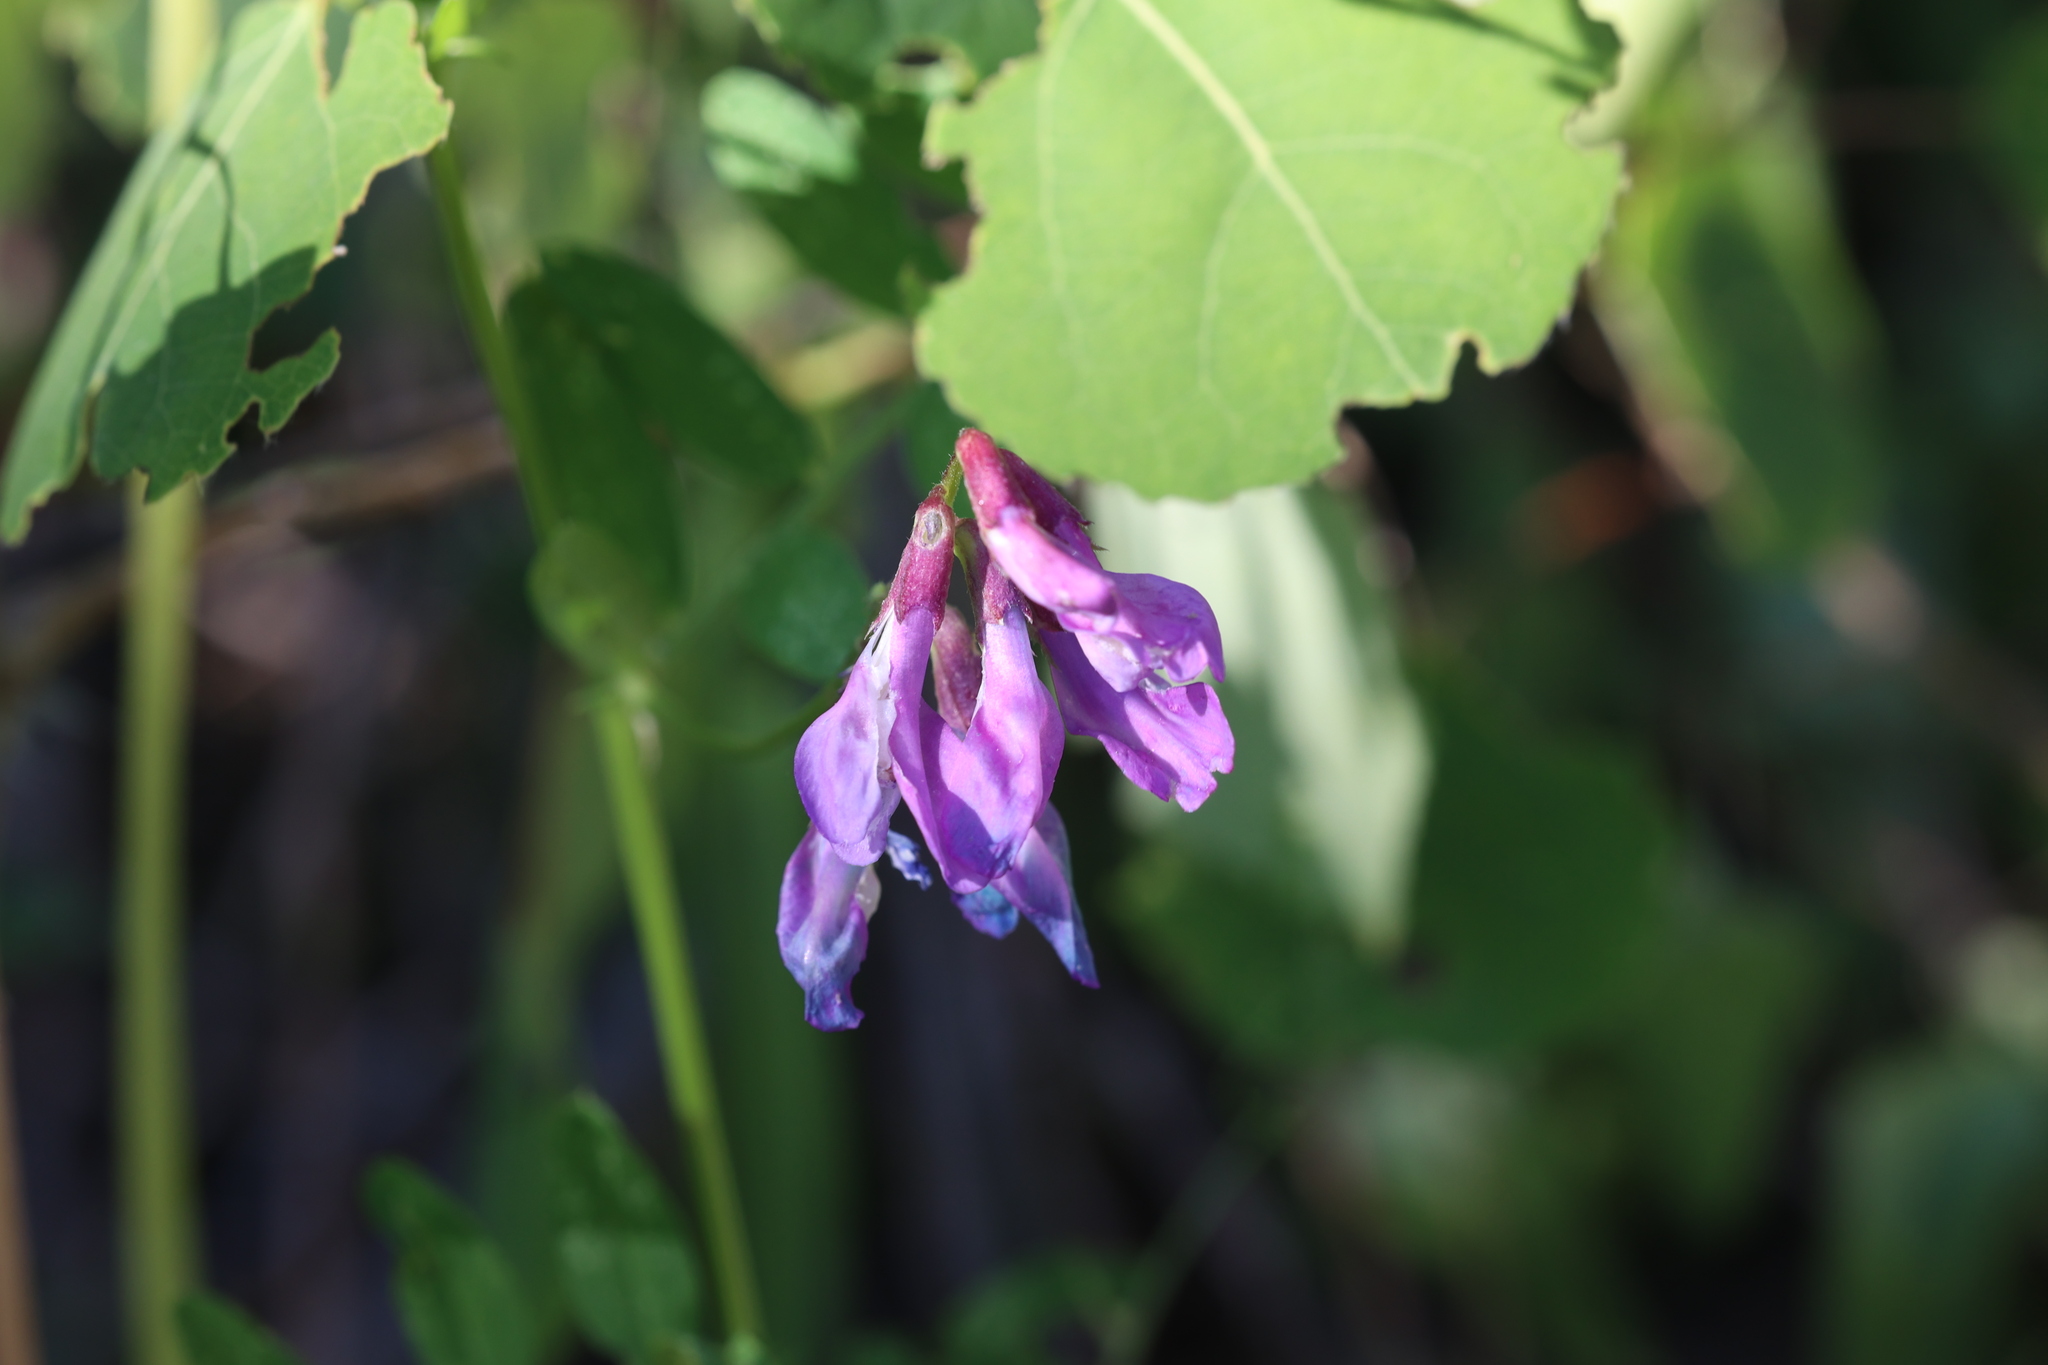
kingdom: Plantae
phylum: Tracheophyta
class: Magnoliopsida
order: Fabales
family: Fabaceae
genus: Vicia
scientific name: Vicia americana
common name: American vetch
